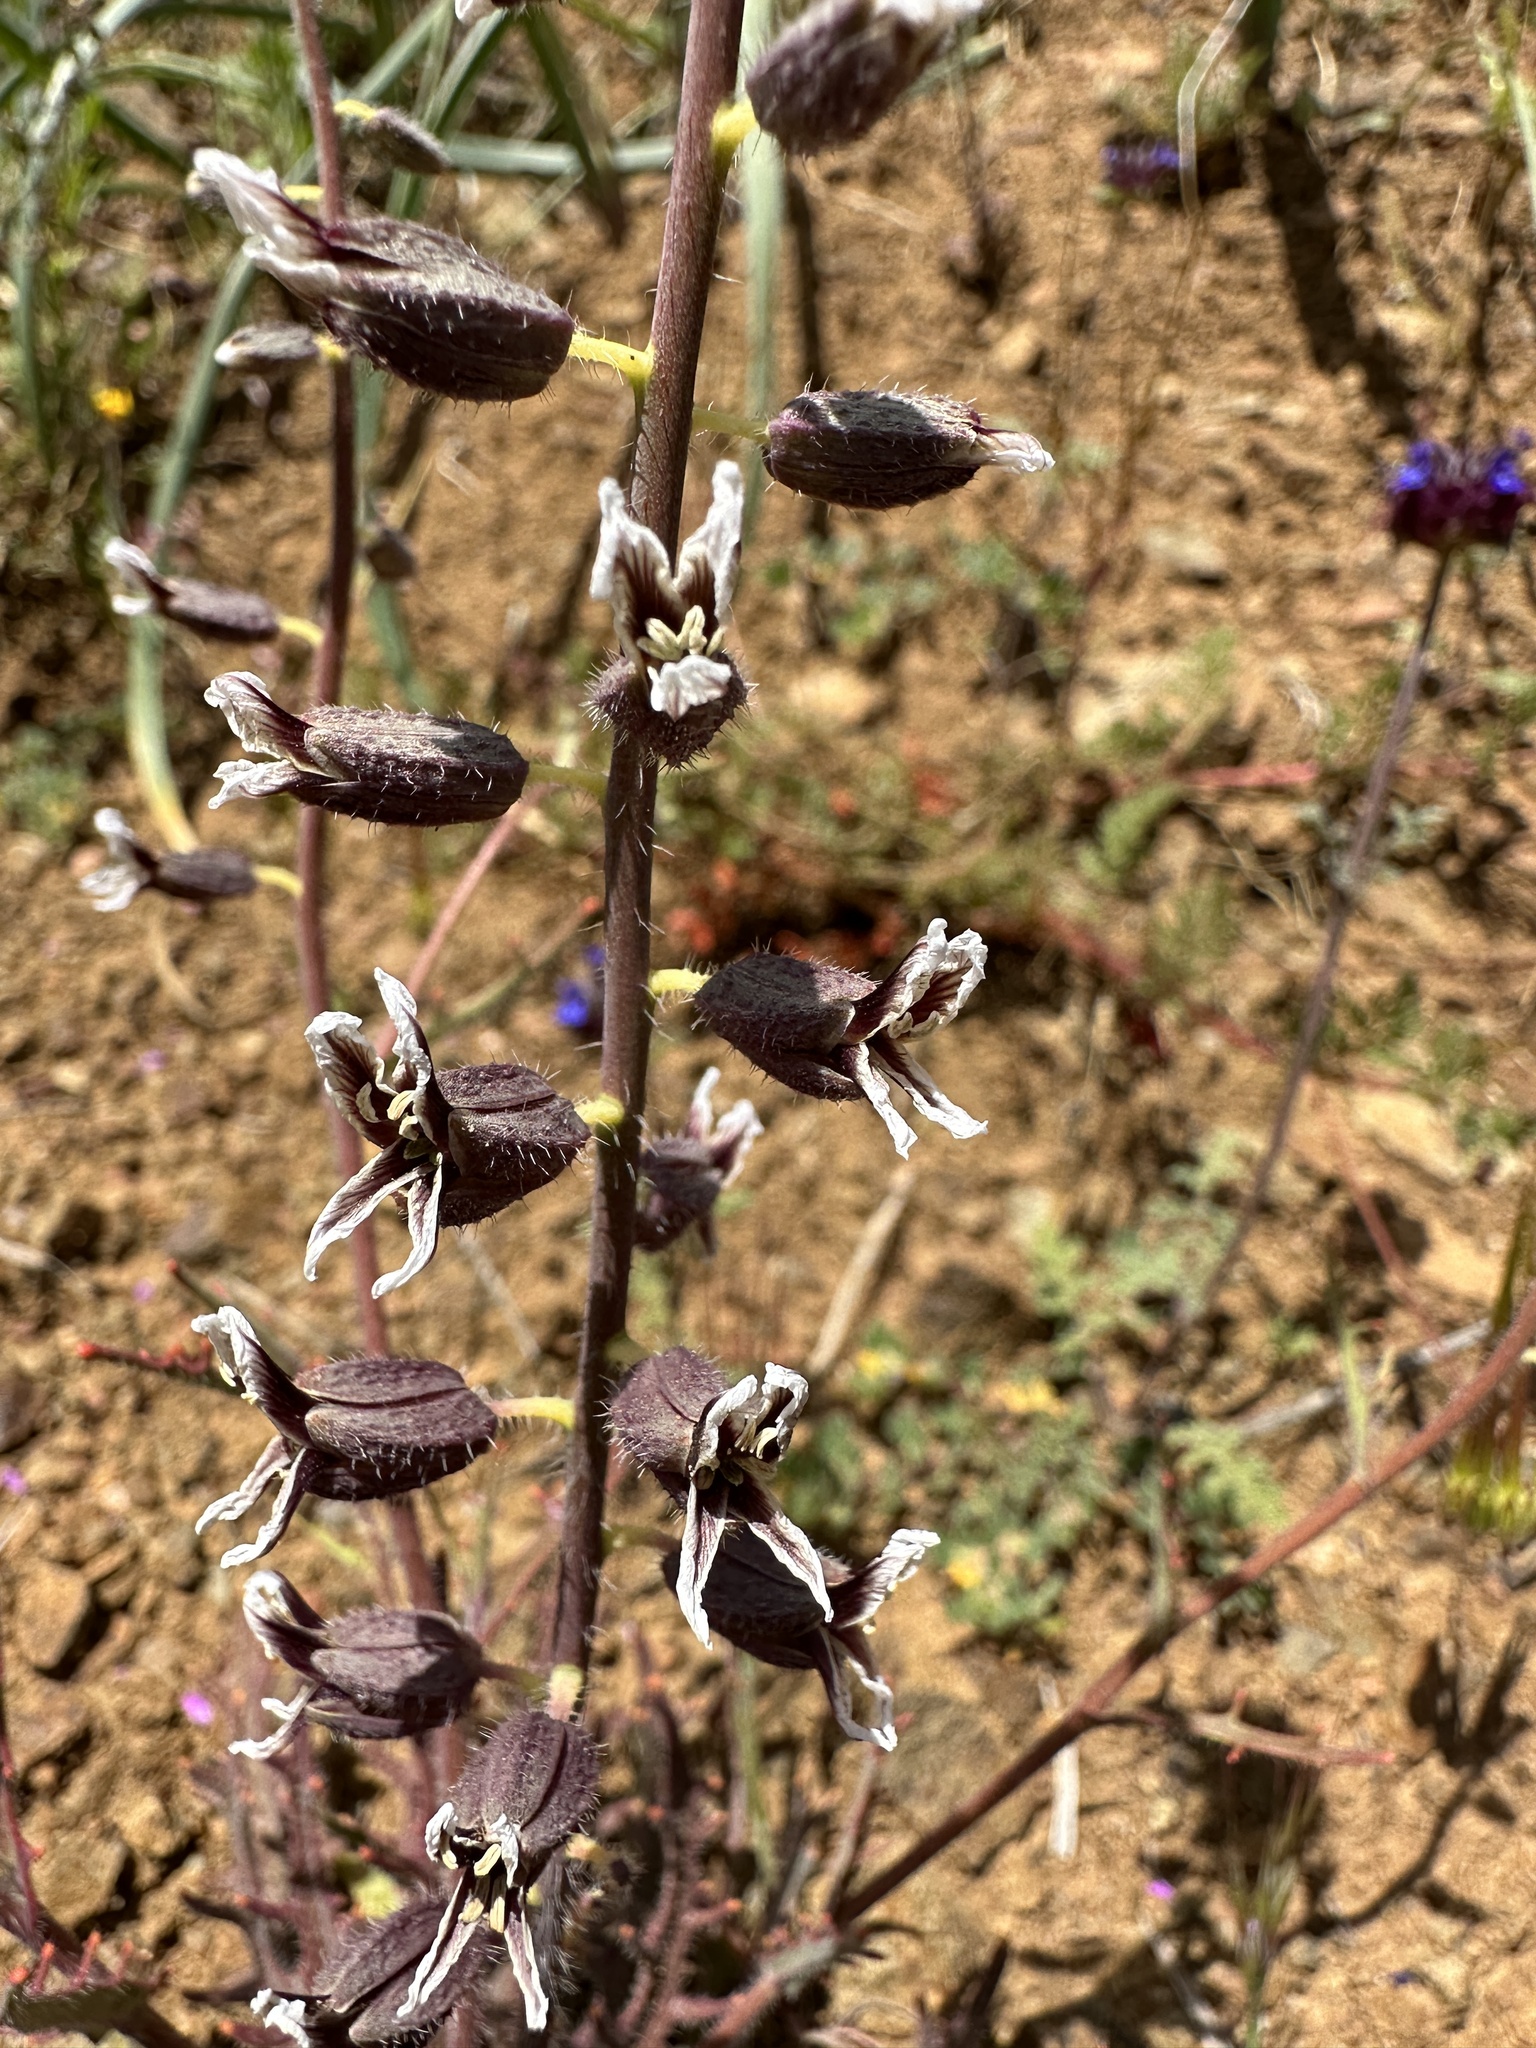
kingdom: Plantae
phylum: Tracheophyta
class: Magnoliopsida
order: Brassicales
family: Brassicaceae
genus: Streptanthus
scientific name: Streptanthus insignis
